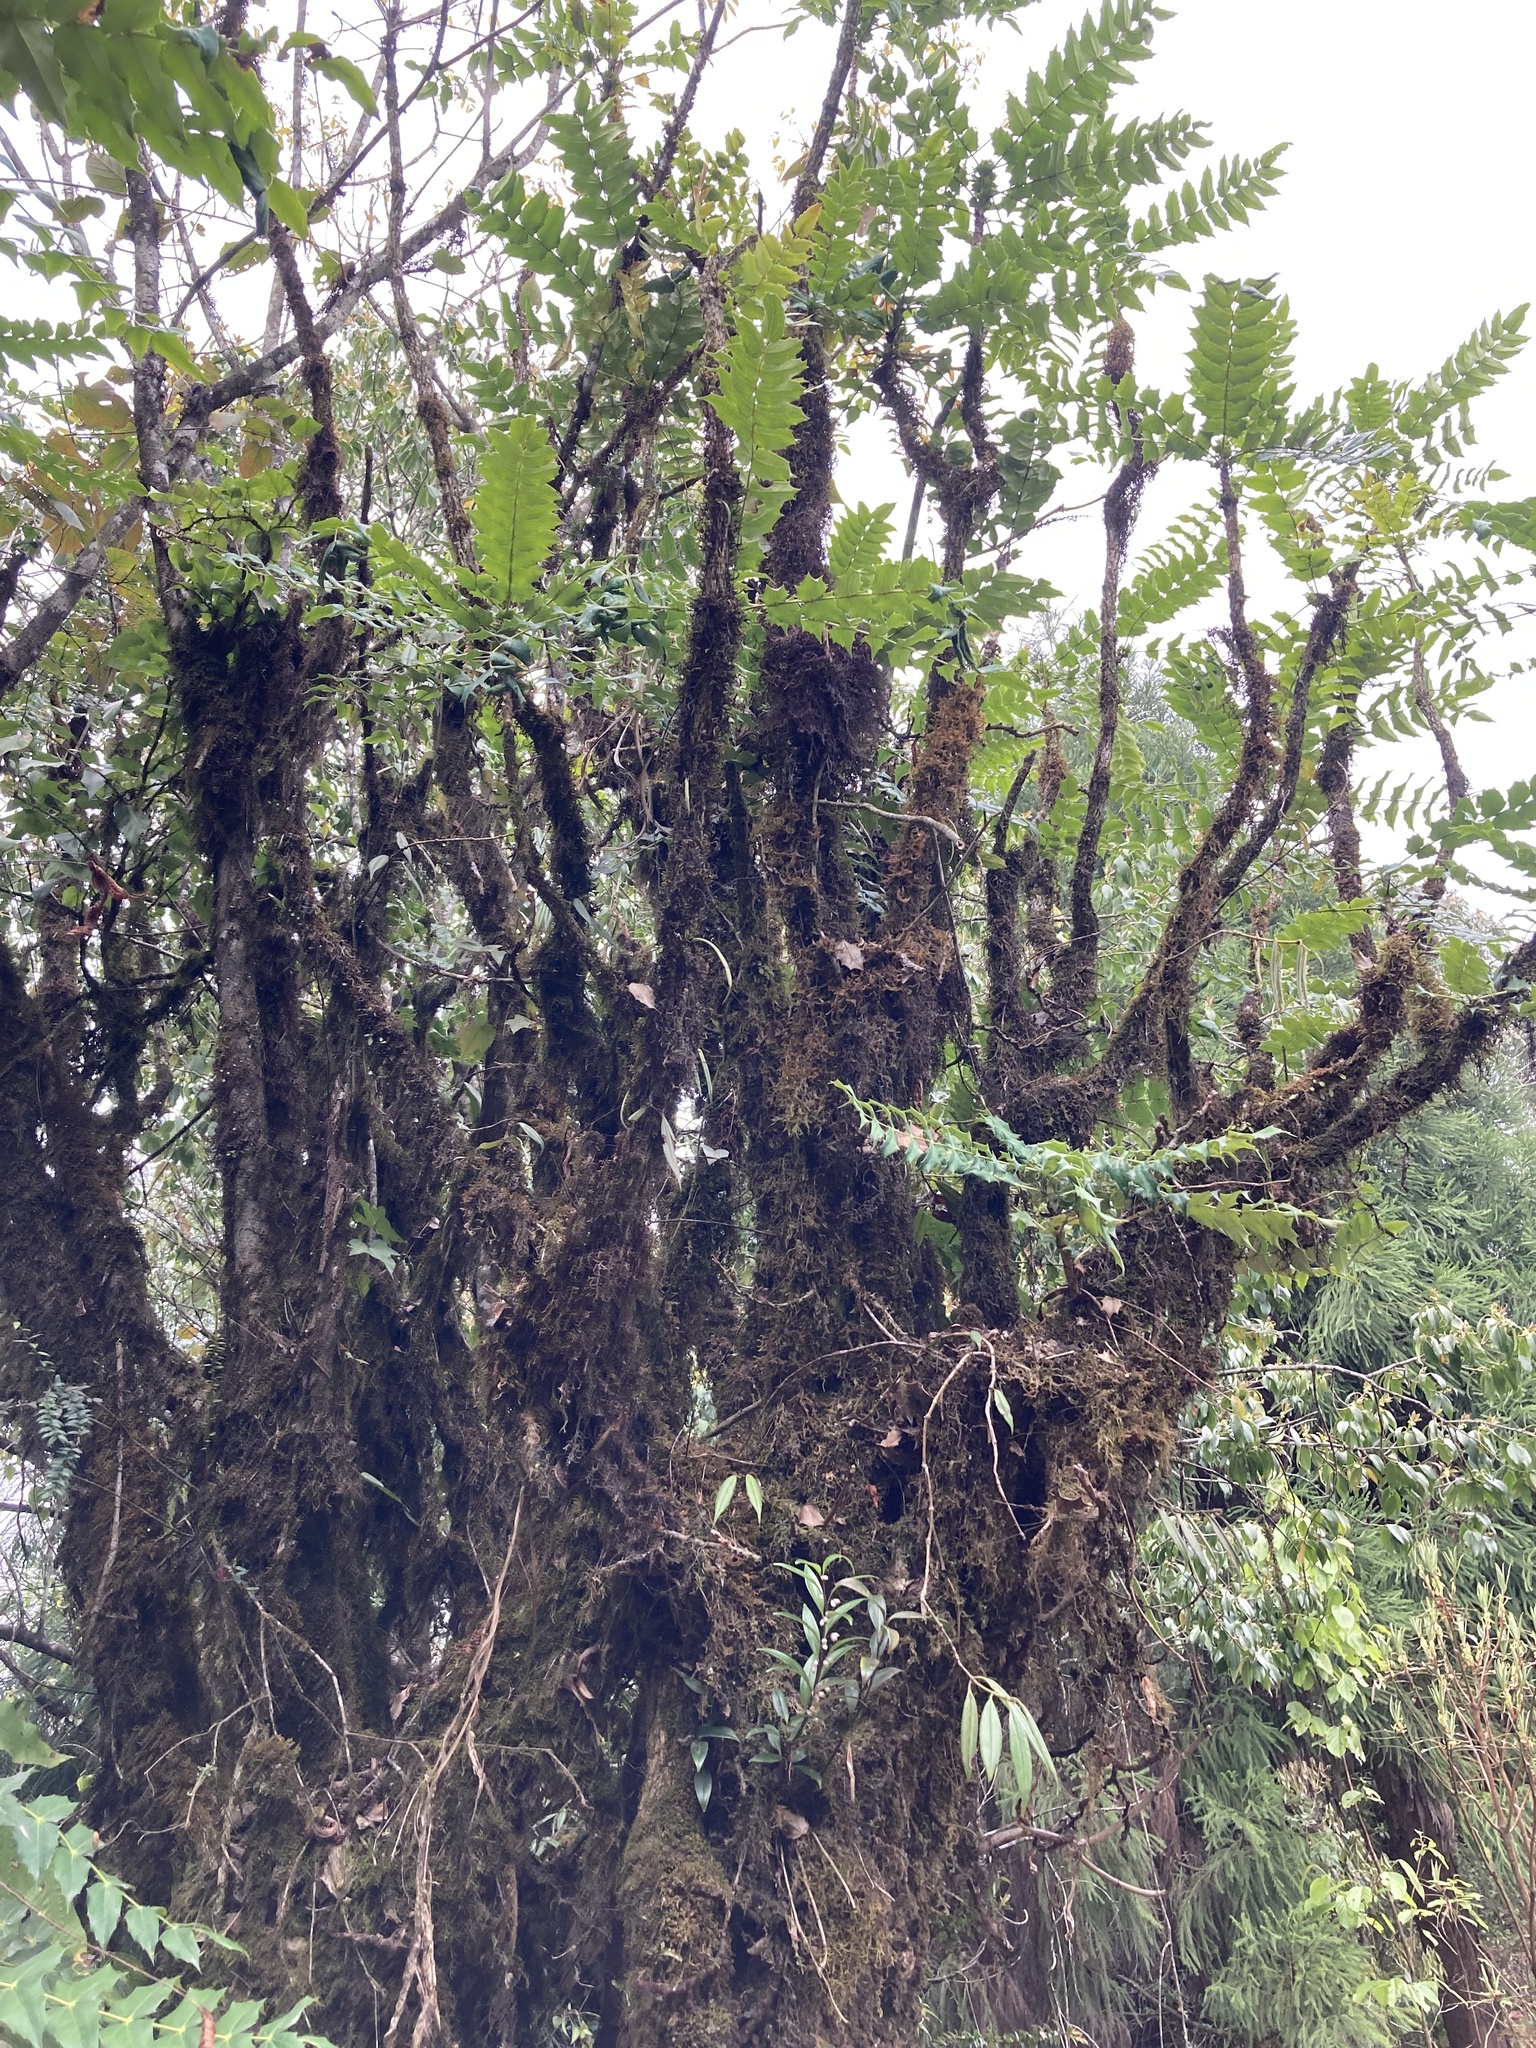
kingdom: Plantae
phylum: Tracheophyta
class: Magnoliopsida
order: Ranunculales
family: Berberidaceae
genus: Mahonia
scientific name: Mahonia napaulensis
